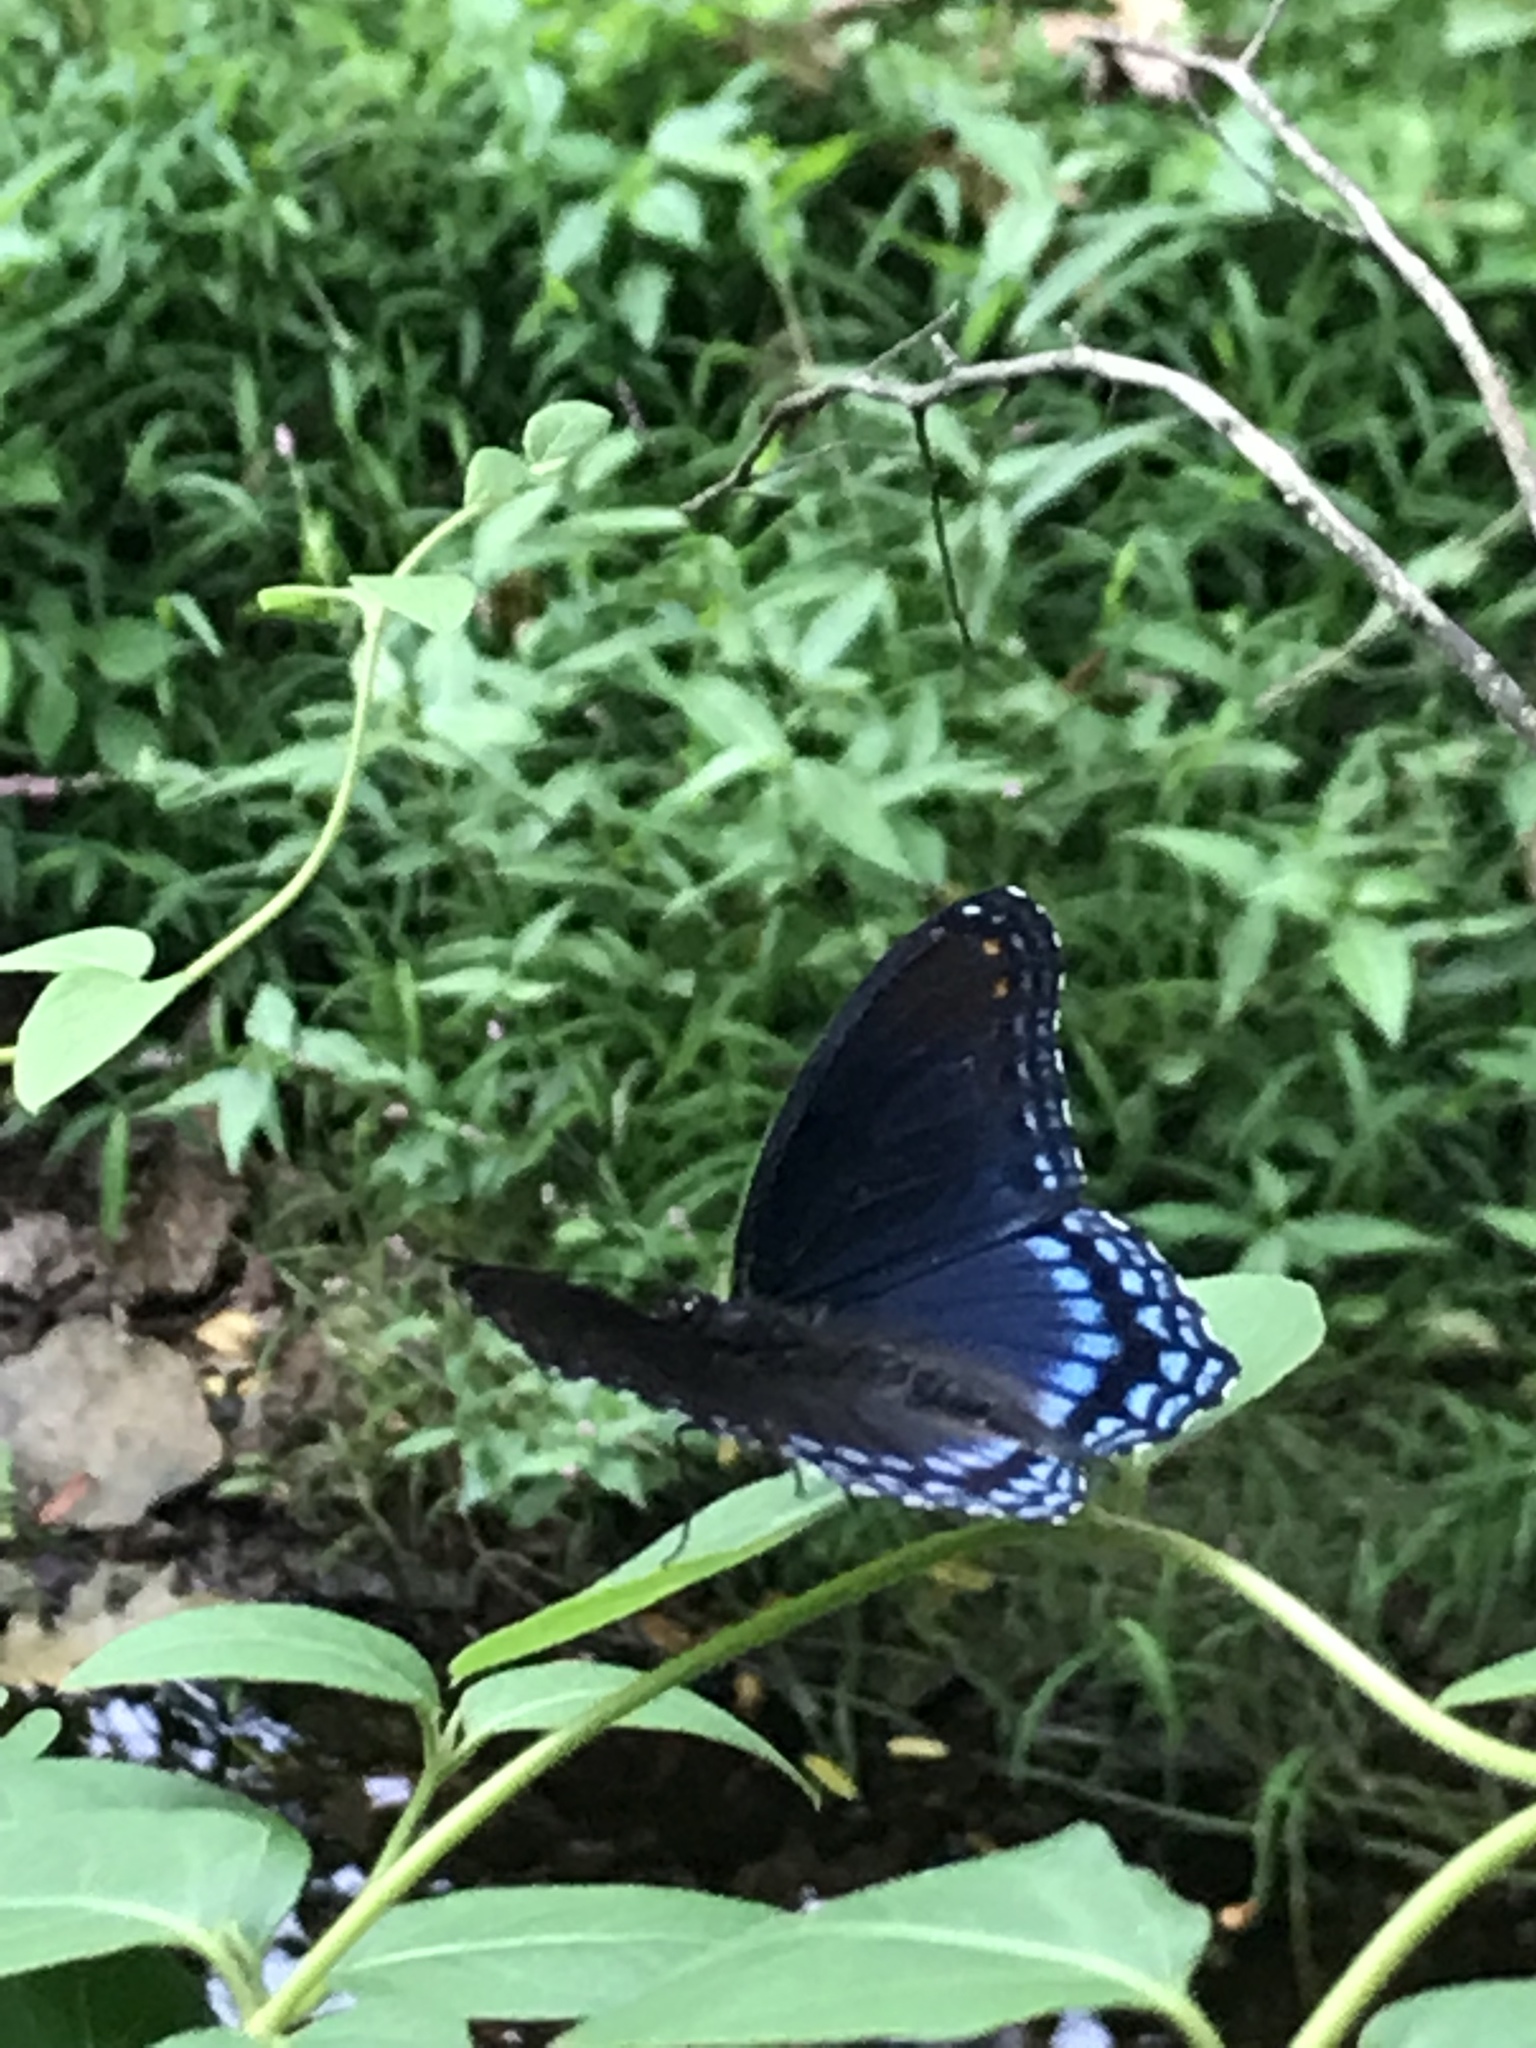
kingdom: Animalia
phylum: Arthropoda
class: Insecta
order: Lepidoptera
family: Nymphalidae
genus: Limenitis
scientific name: Limenitis astyanax
